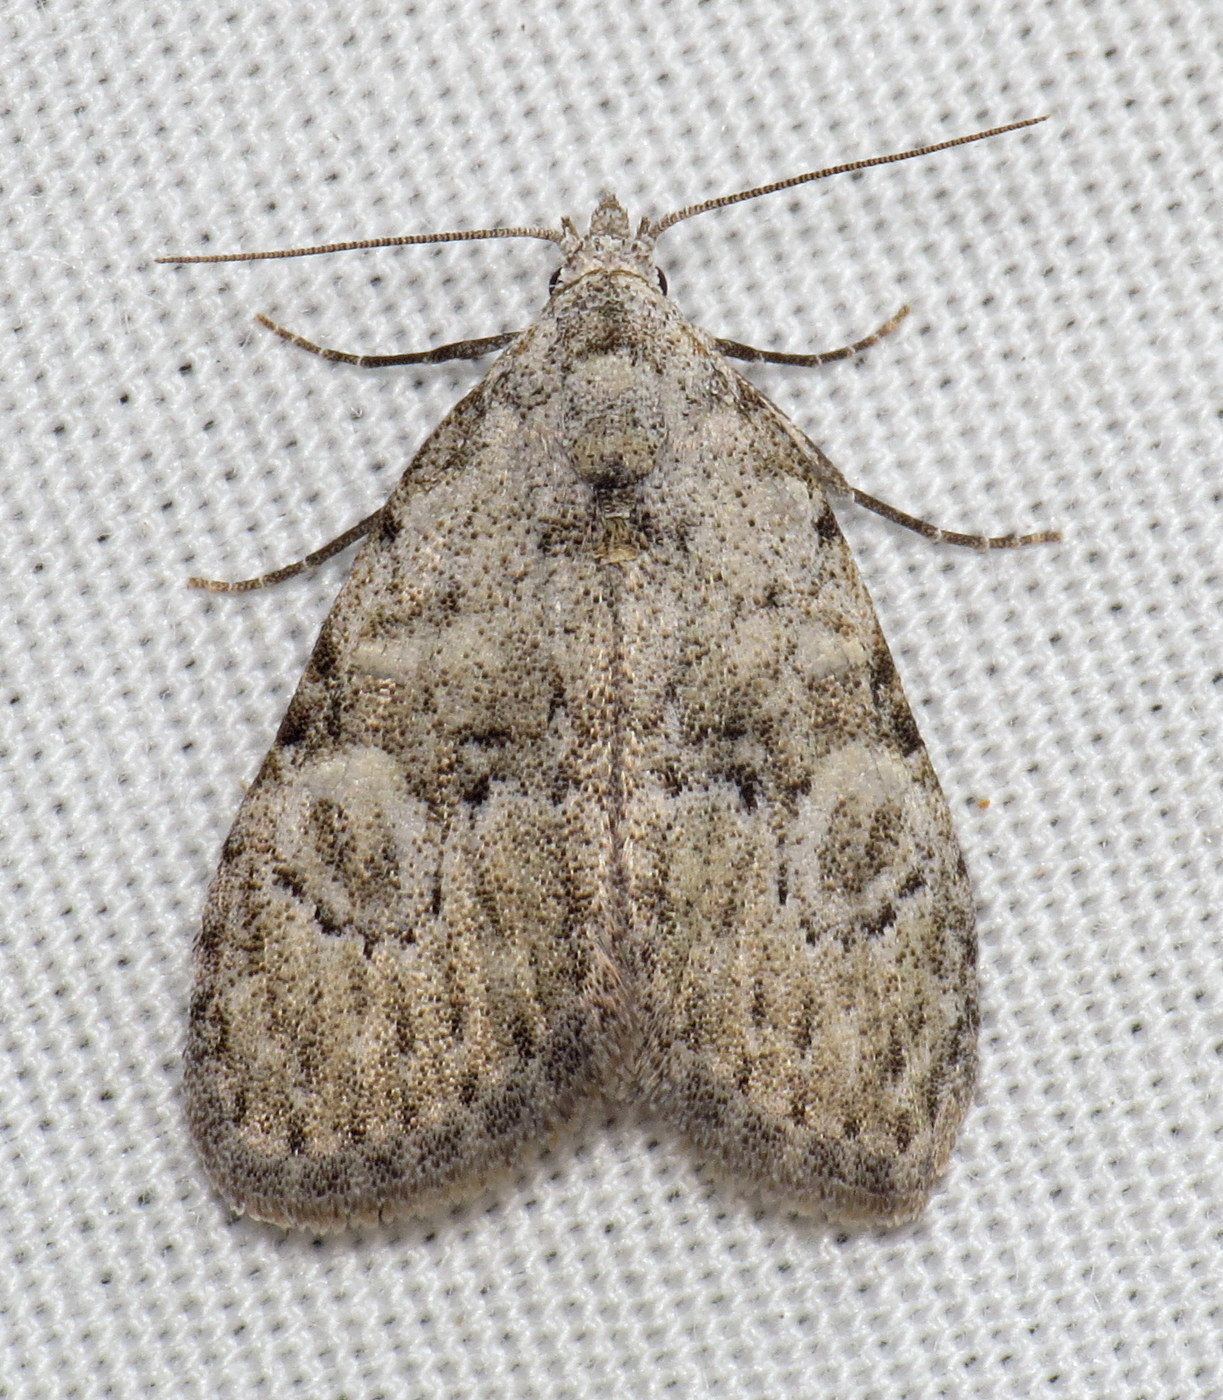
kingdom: Animalia
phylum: Arthropoda
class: Insecta
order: Lepidoptera
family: Nolidae
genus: Meganola
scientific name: Meganola minuscula
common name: Confused meganola moth
